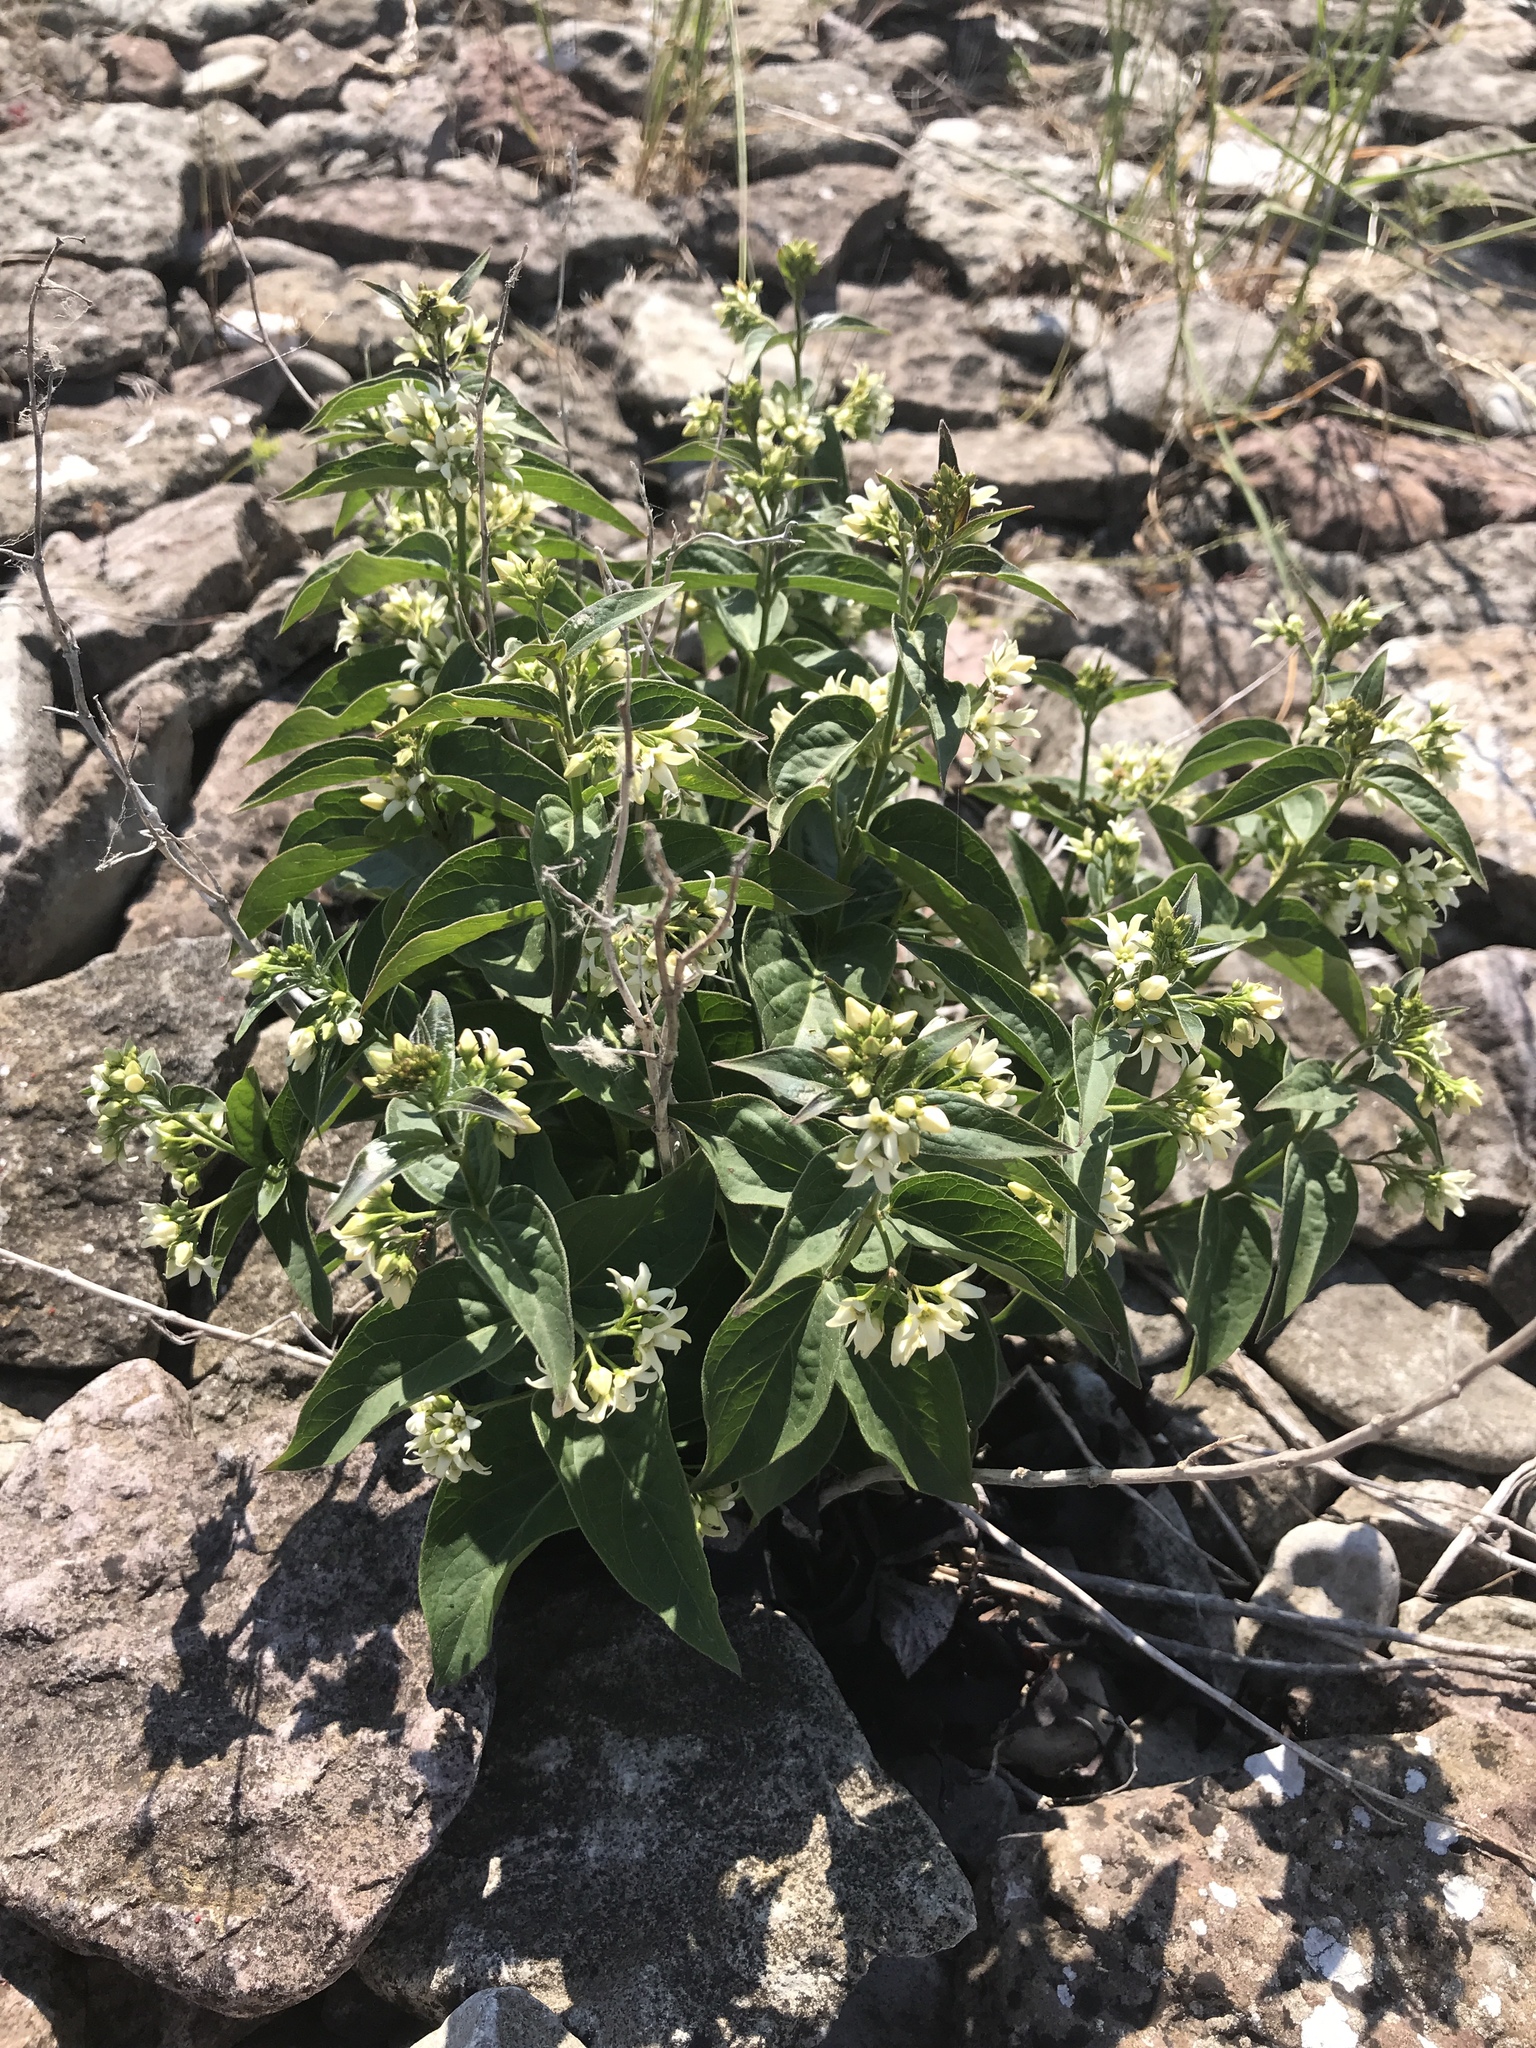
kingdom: Plantae
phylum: Tracheophyta
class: Magnoliopsida
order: Gentianales
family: Apocynaceae
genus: Vincetoxicum
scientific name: Vincetoxicum hirundinaria
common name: White swallowwort
